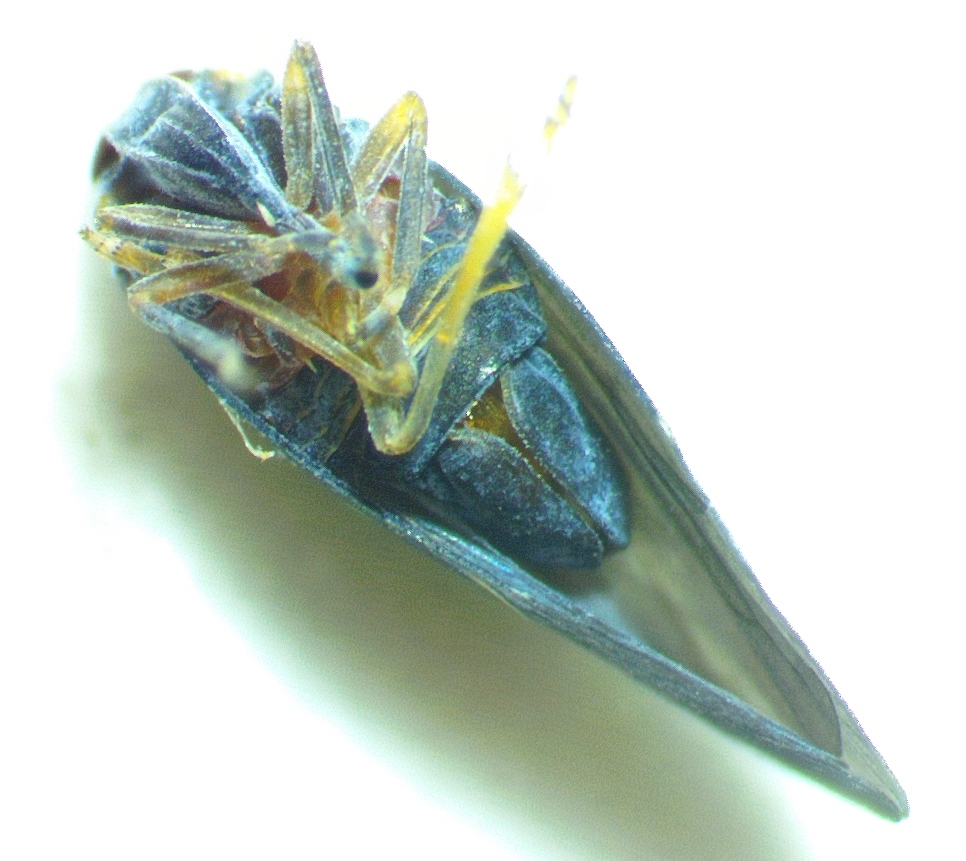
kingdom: Animalia
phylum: Arthropoda
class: Insecta
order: Hemiptera
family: Derbidae
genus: Cedusa
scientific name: Cedusa obscura
